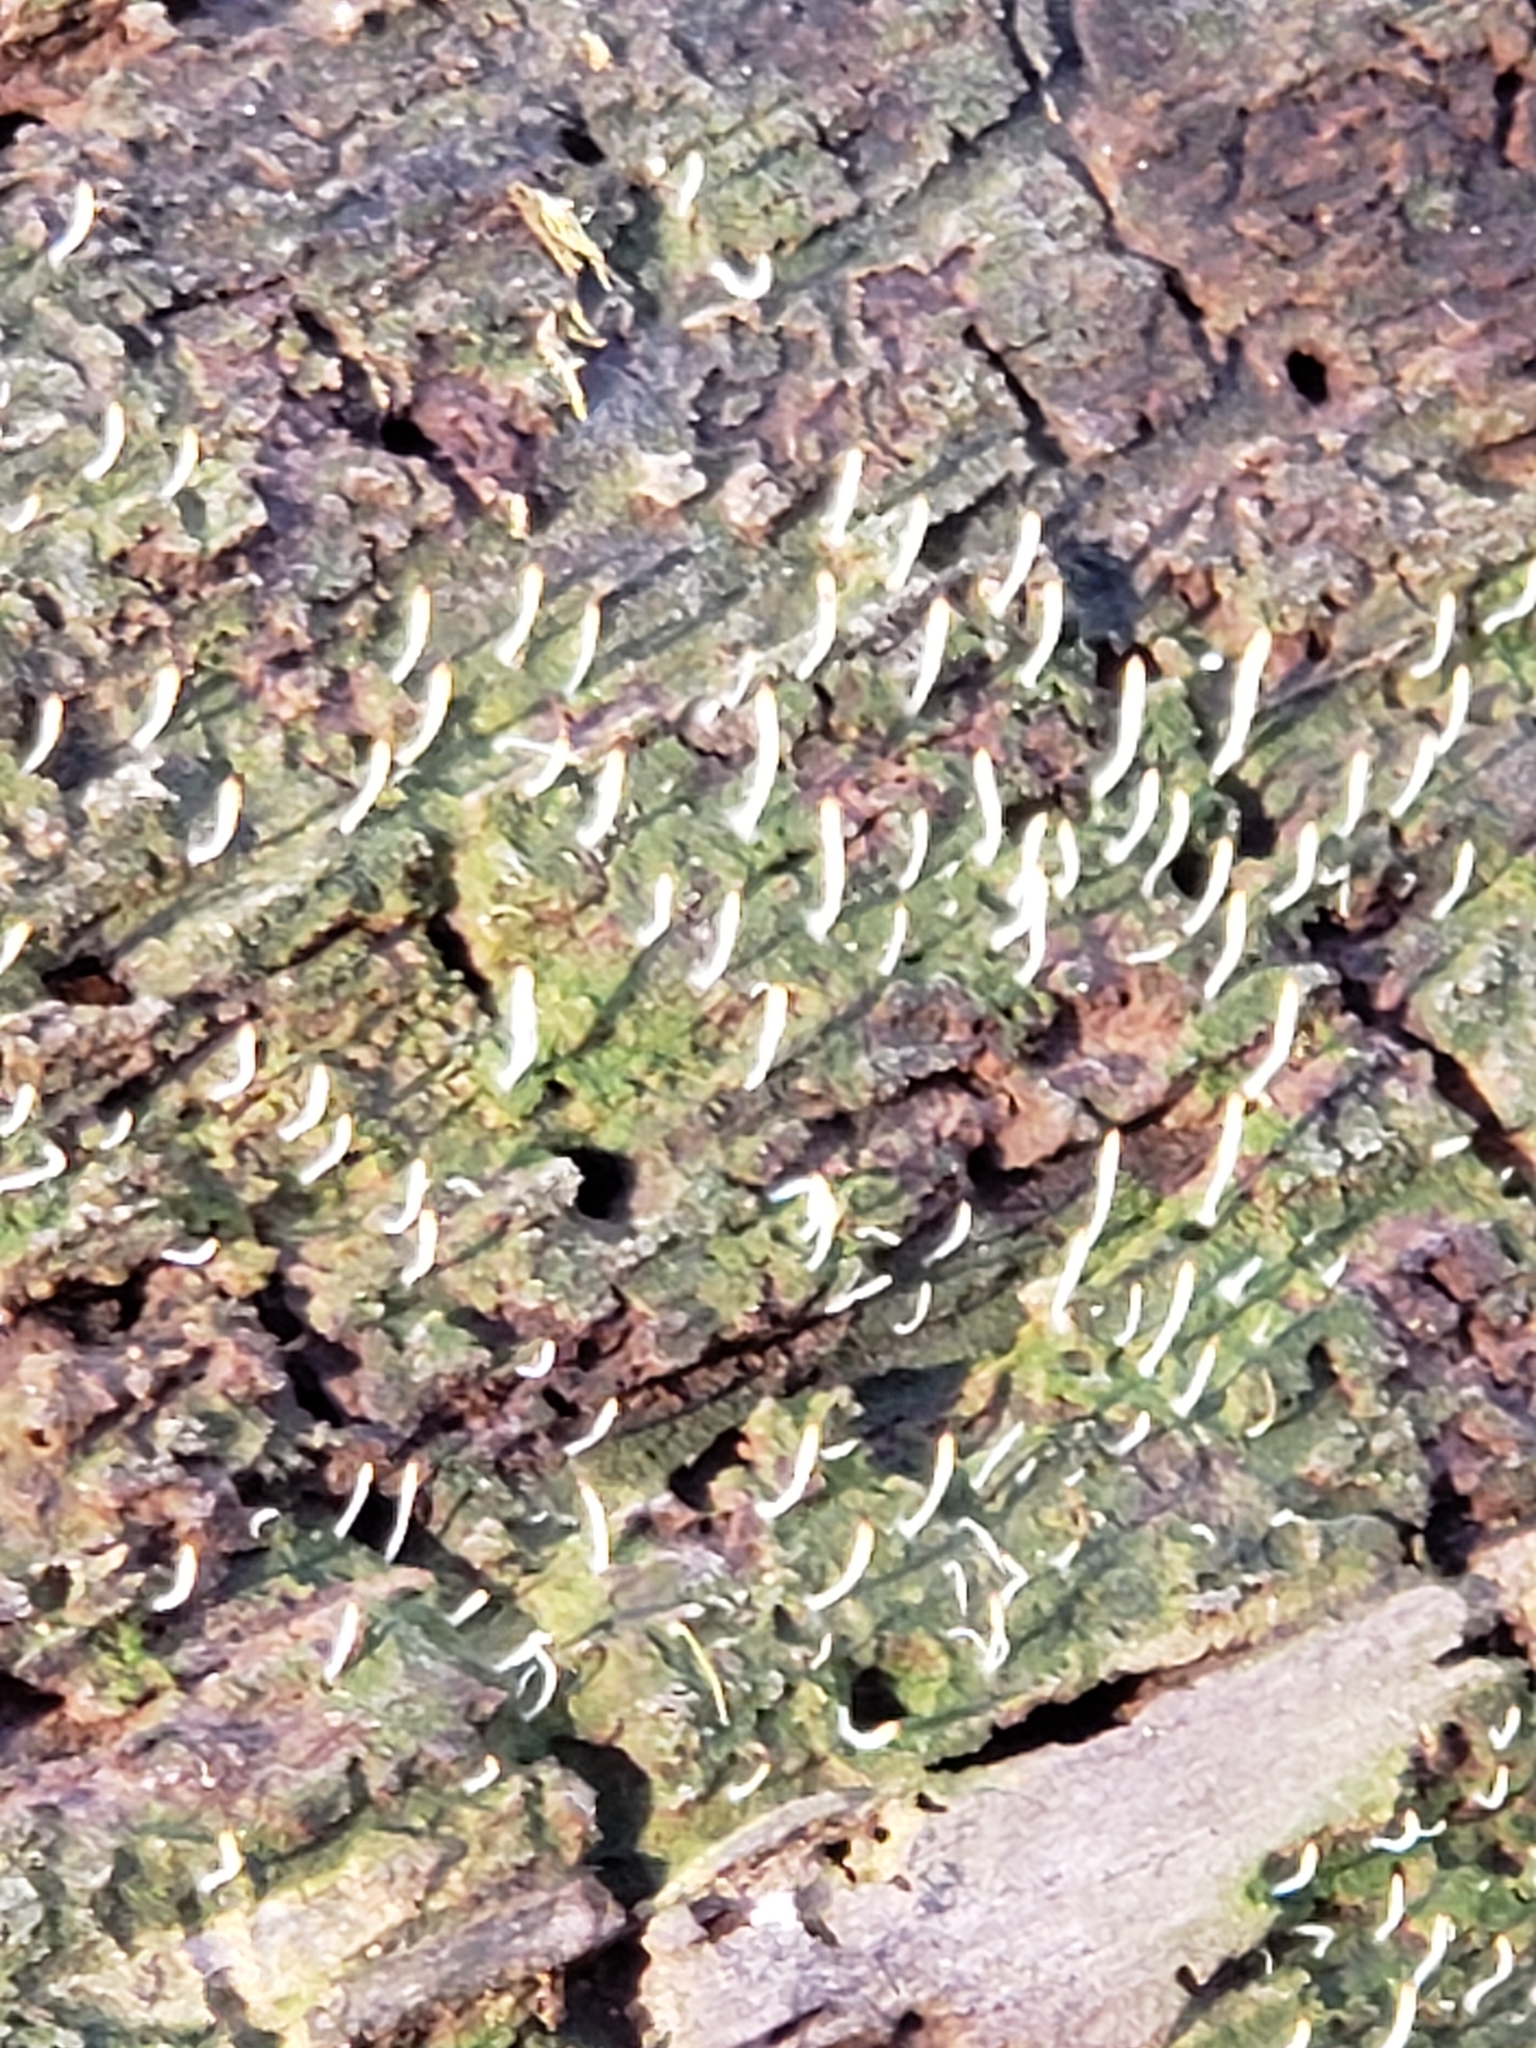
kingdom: Fungi
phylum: Basidiomycota
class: Agaricomycetes
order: Cantharellales
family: Hydnaceae
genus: Multiclavula
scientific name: Multiclavula mucida
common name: White green-algae coral
